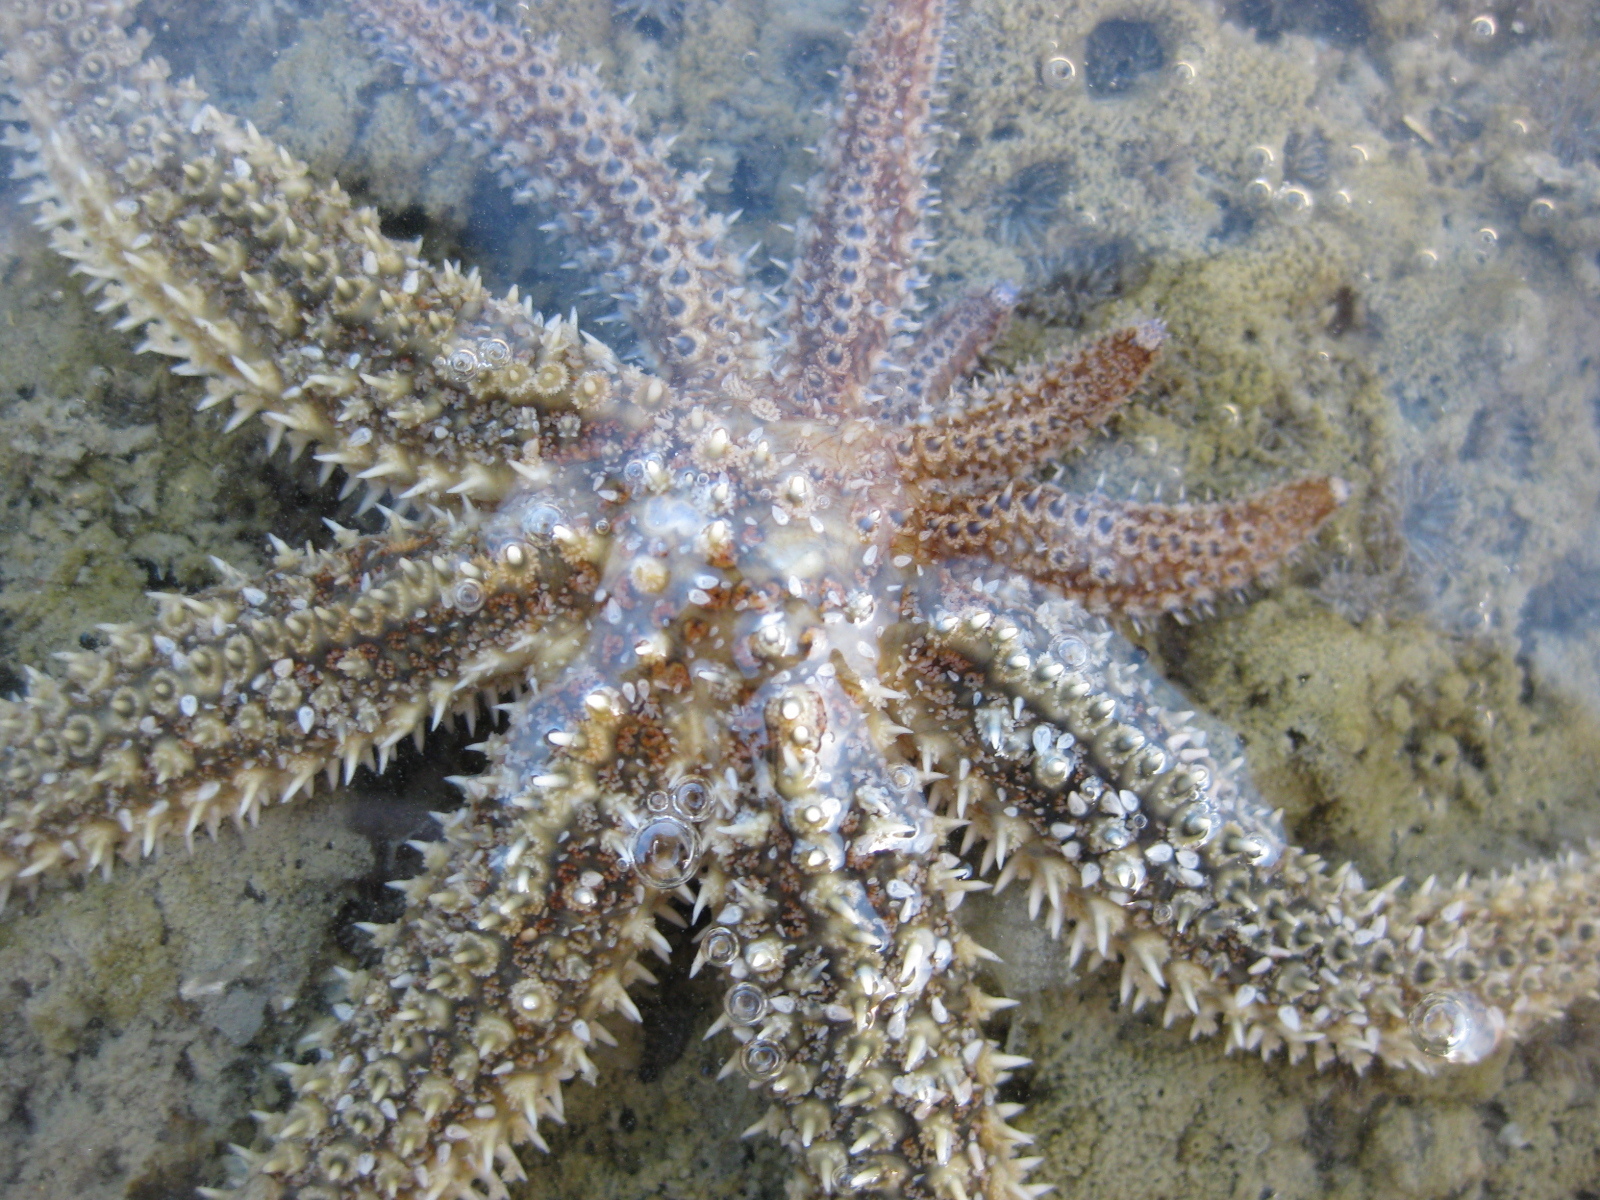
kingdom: Animalia
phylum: Echinodermata
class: Asteroidea
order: Forcipulatida
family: Asteriidae
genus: Coscinasterias
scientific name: Coscinasterias muricata
